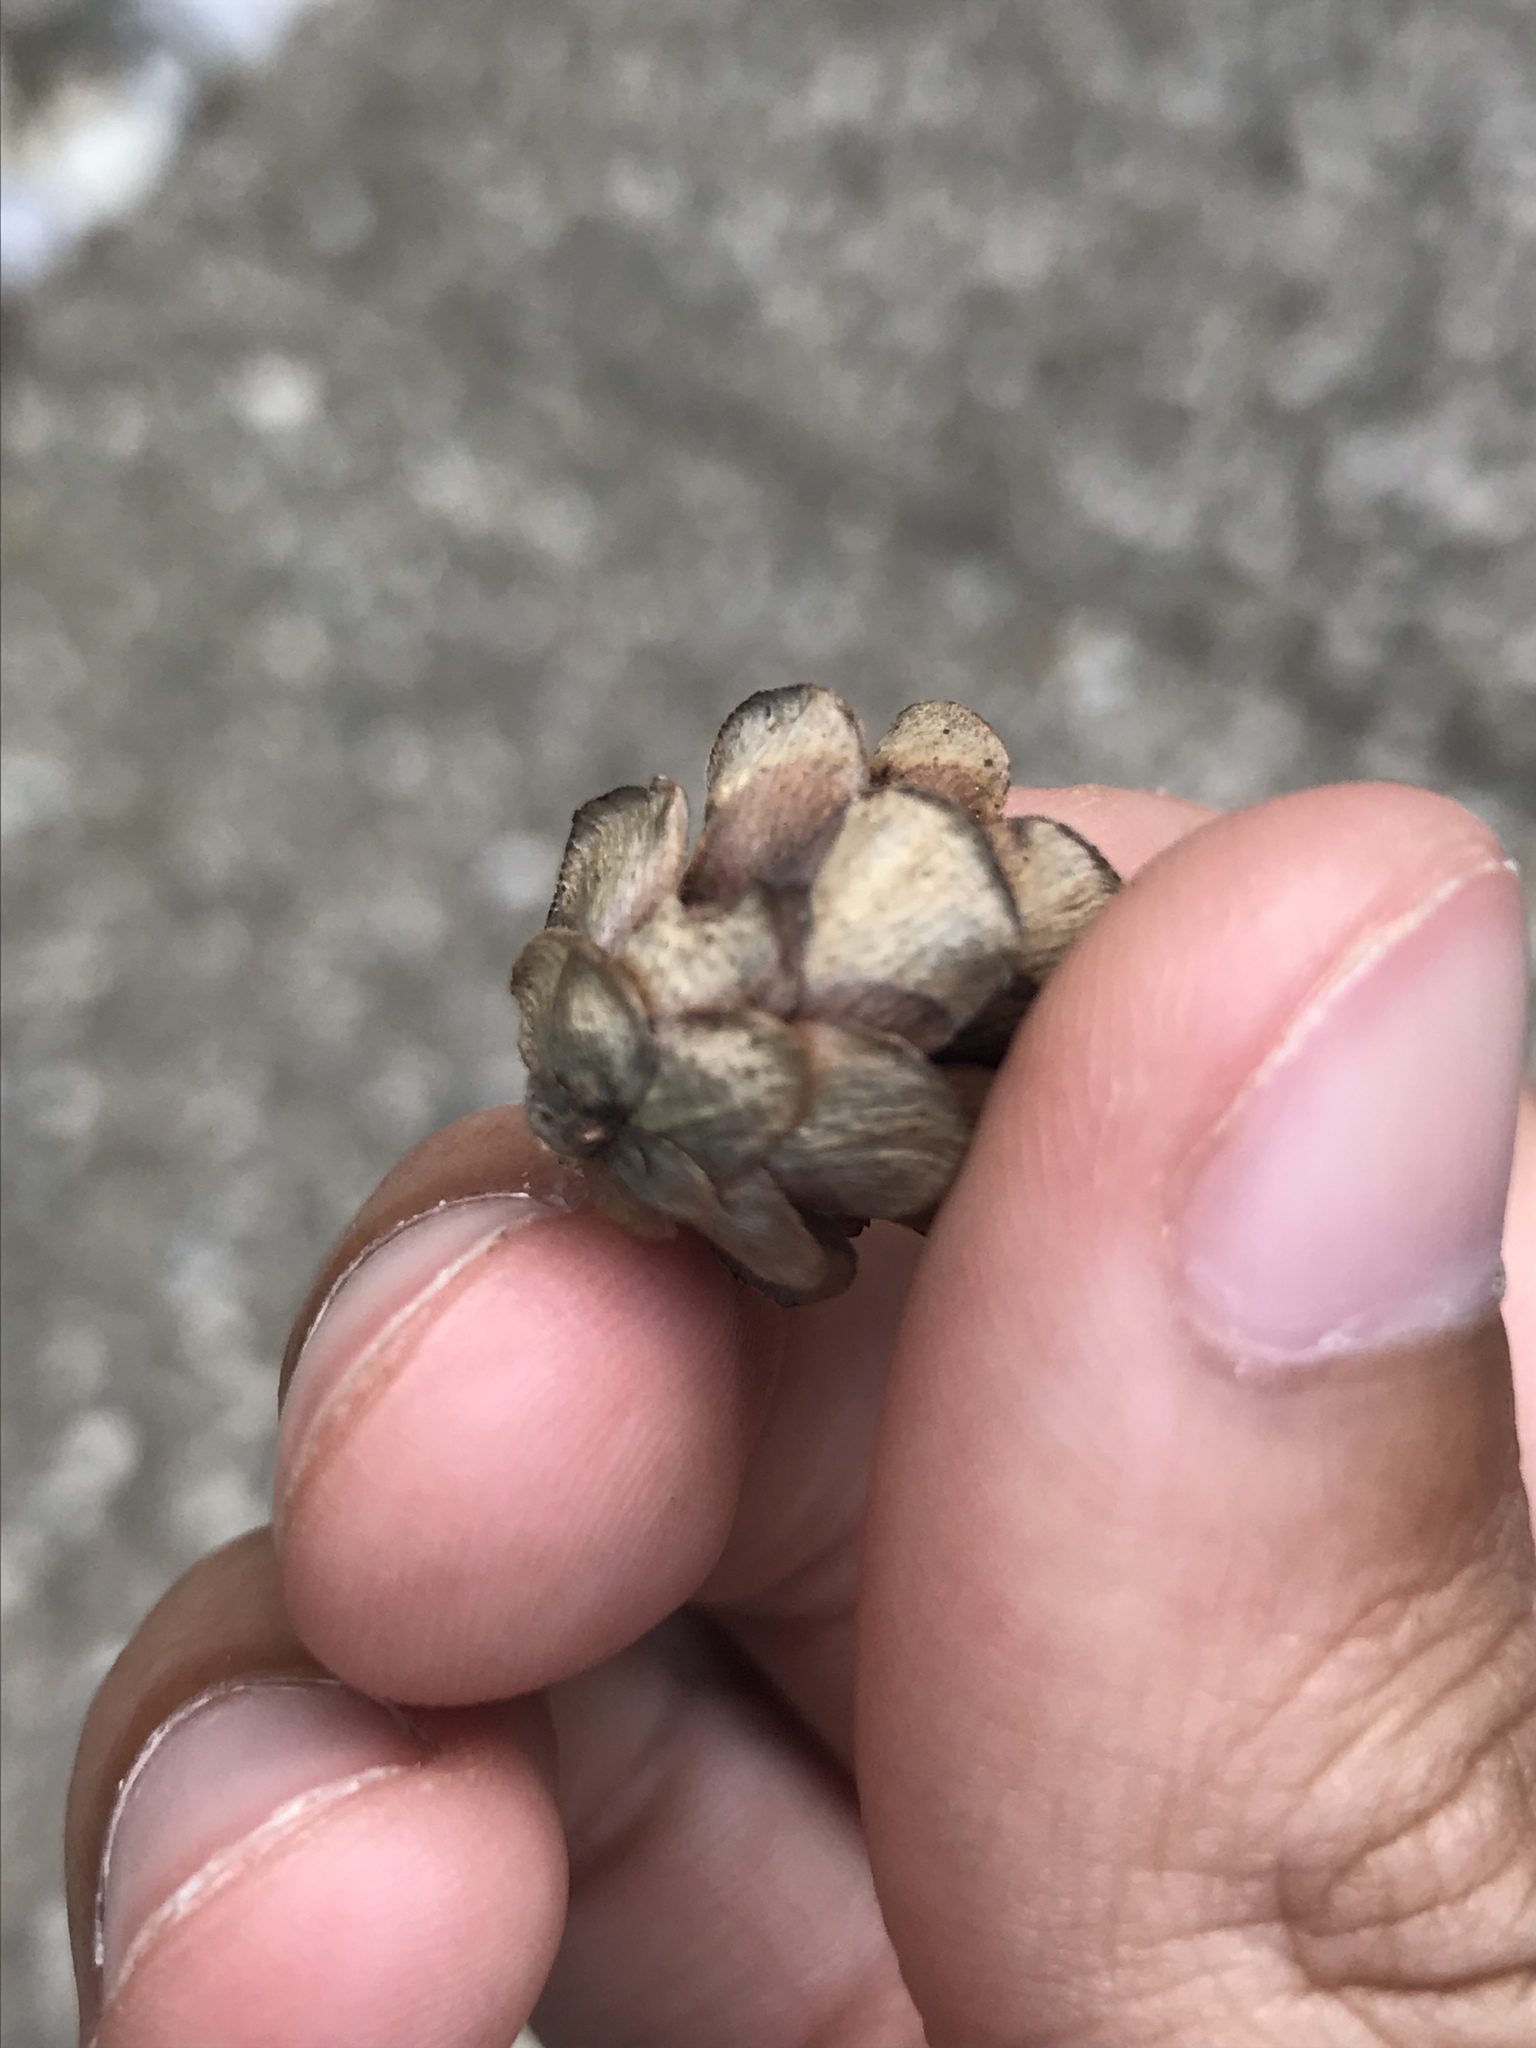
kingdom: Plantae
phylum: Tracheophyta
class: Pinopsida
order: Pinales
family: Pinaceae
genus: Tsuga
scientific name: Tsuga canadensis
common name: Eastern hemlock
